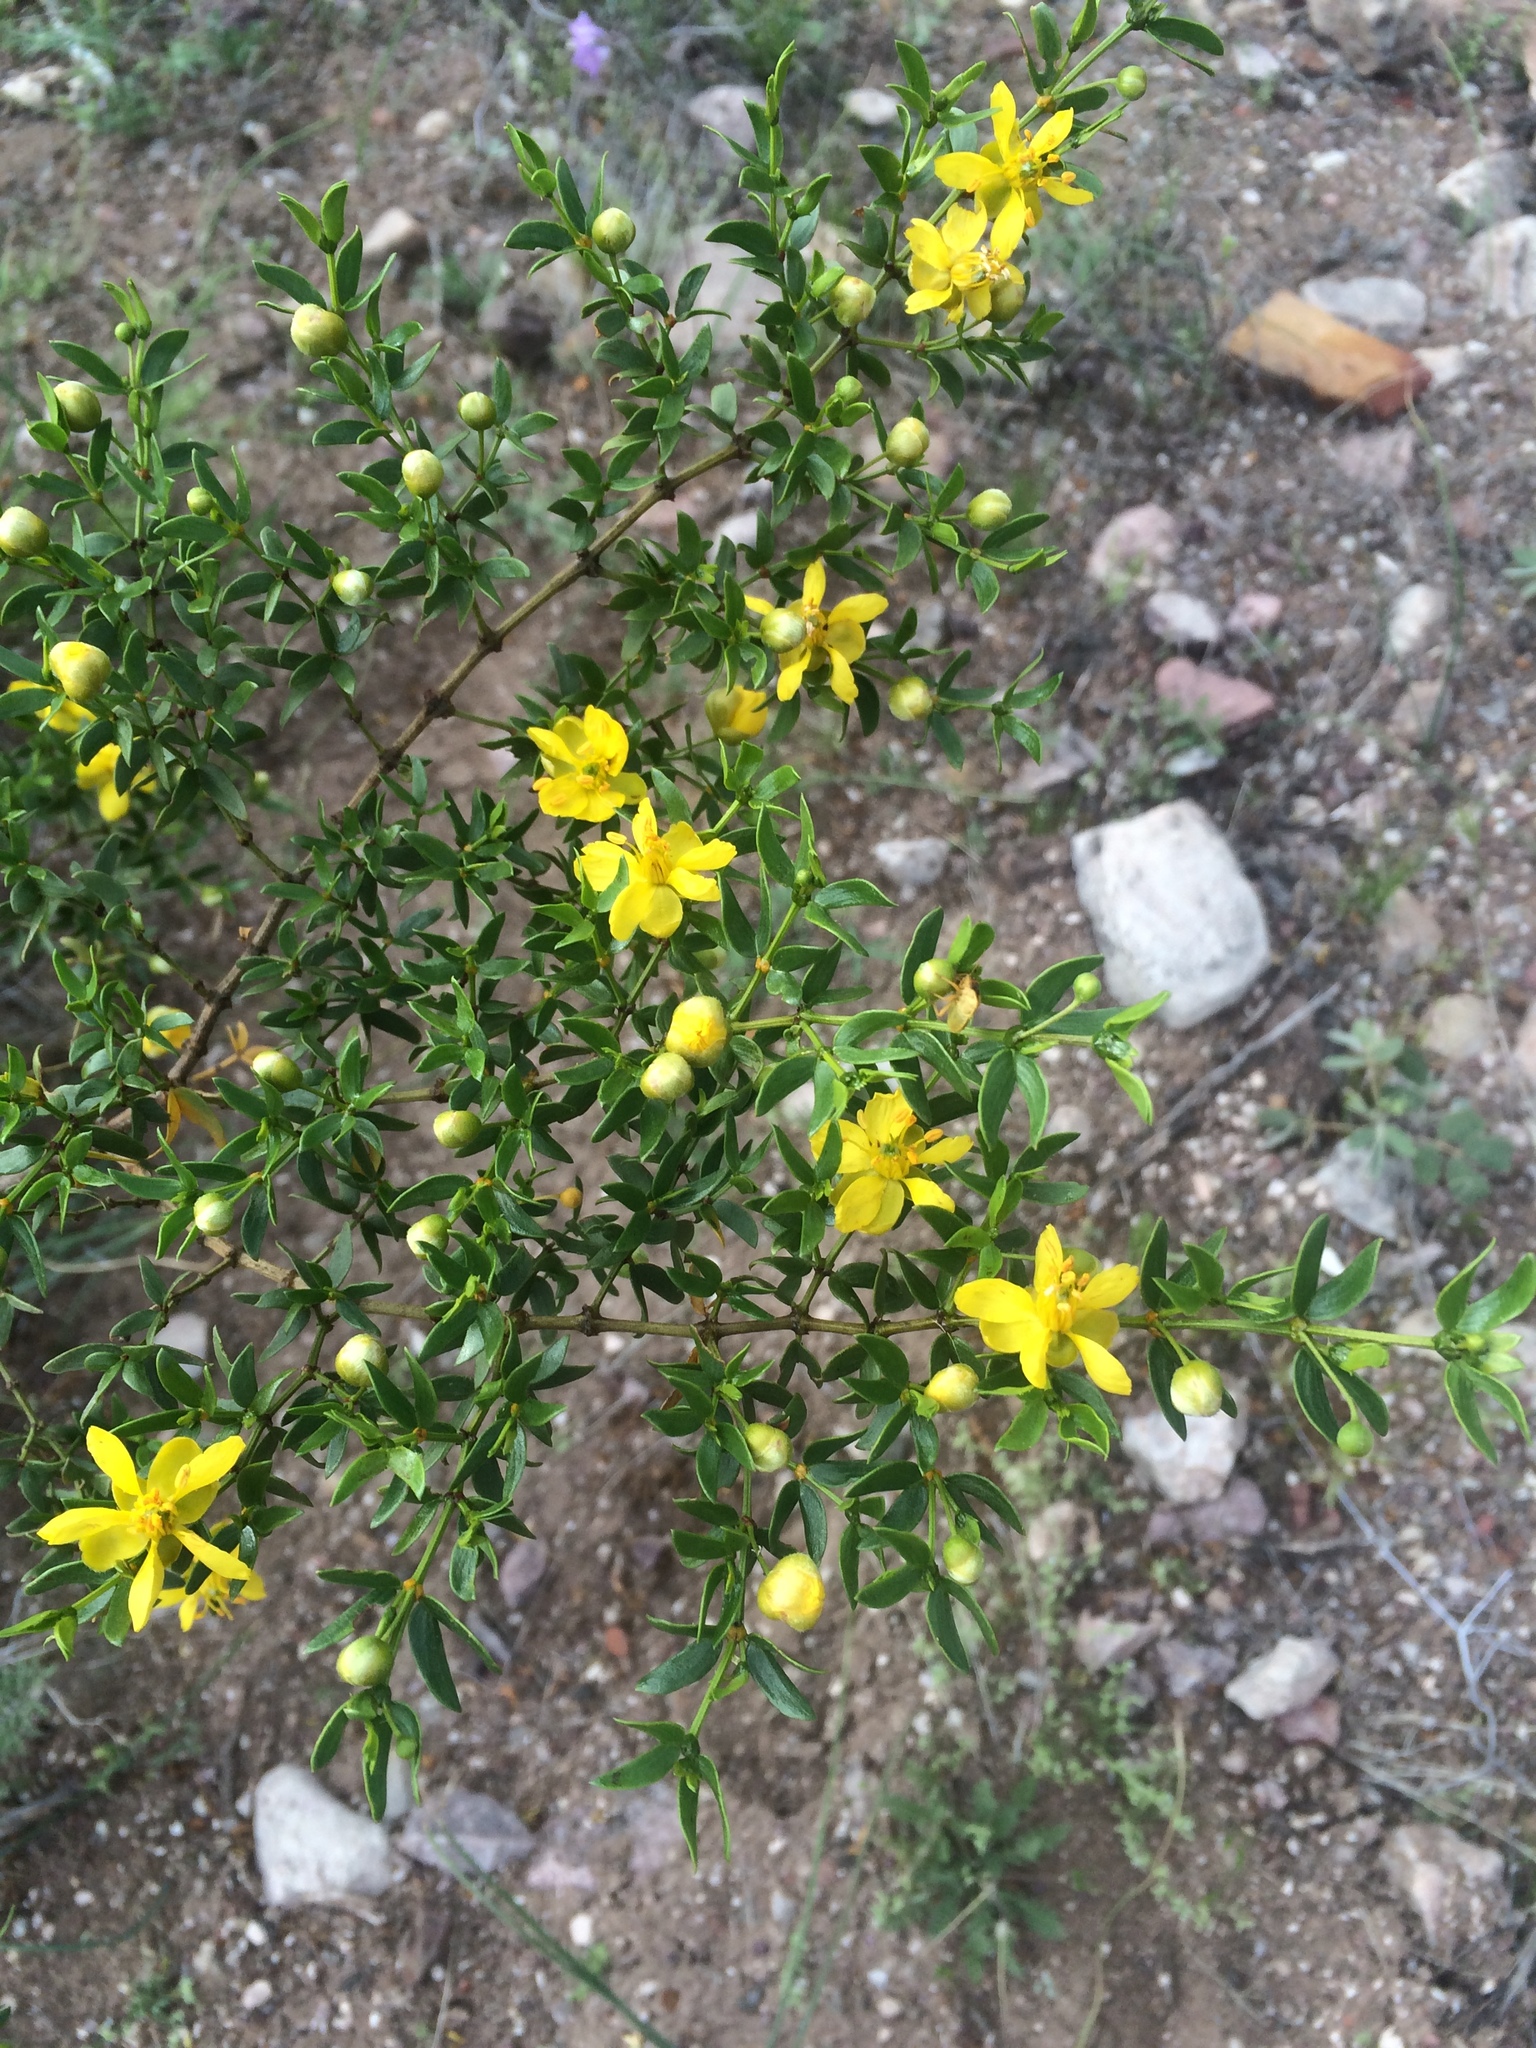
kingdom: Plantae
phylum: Tracheophyta
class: Magnoliopsida
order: Zygophyllales
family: Zygophyllaceae
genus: Larrea
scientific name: Larrea tridentata
